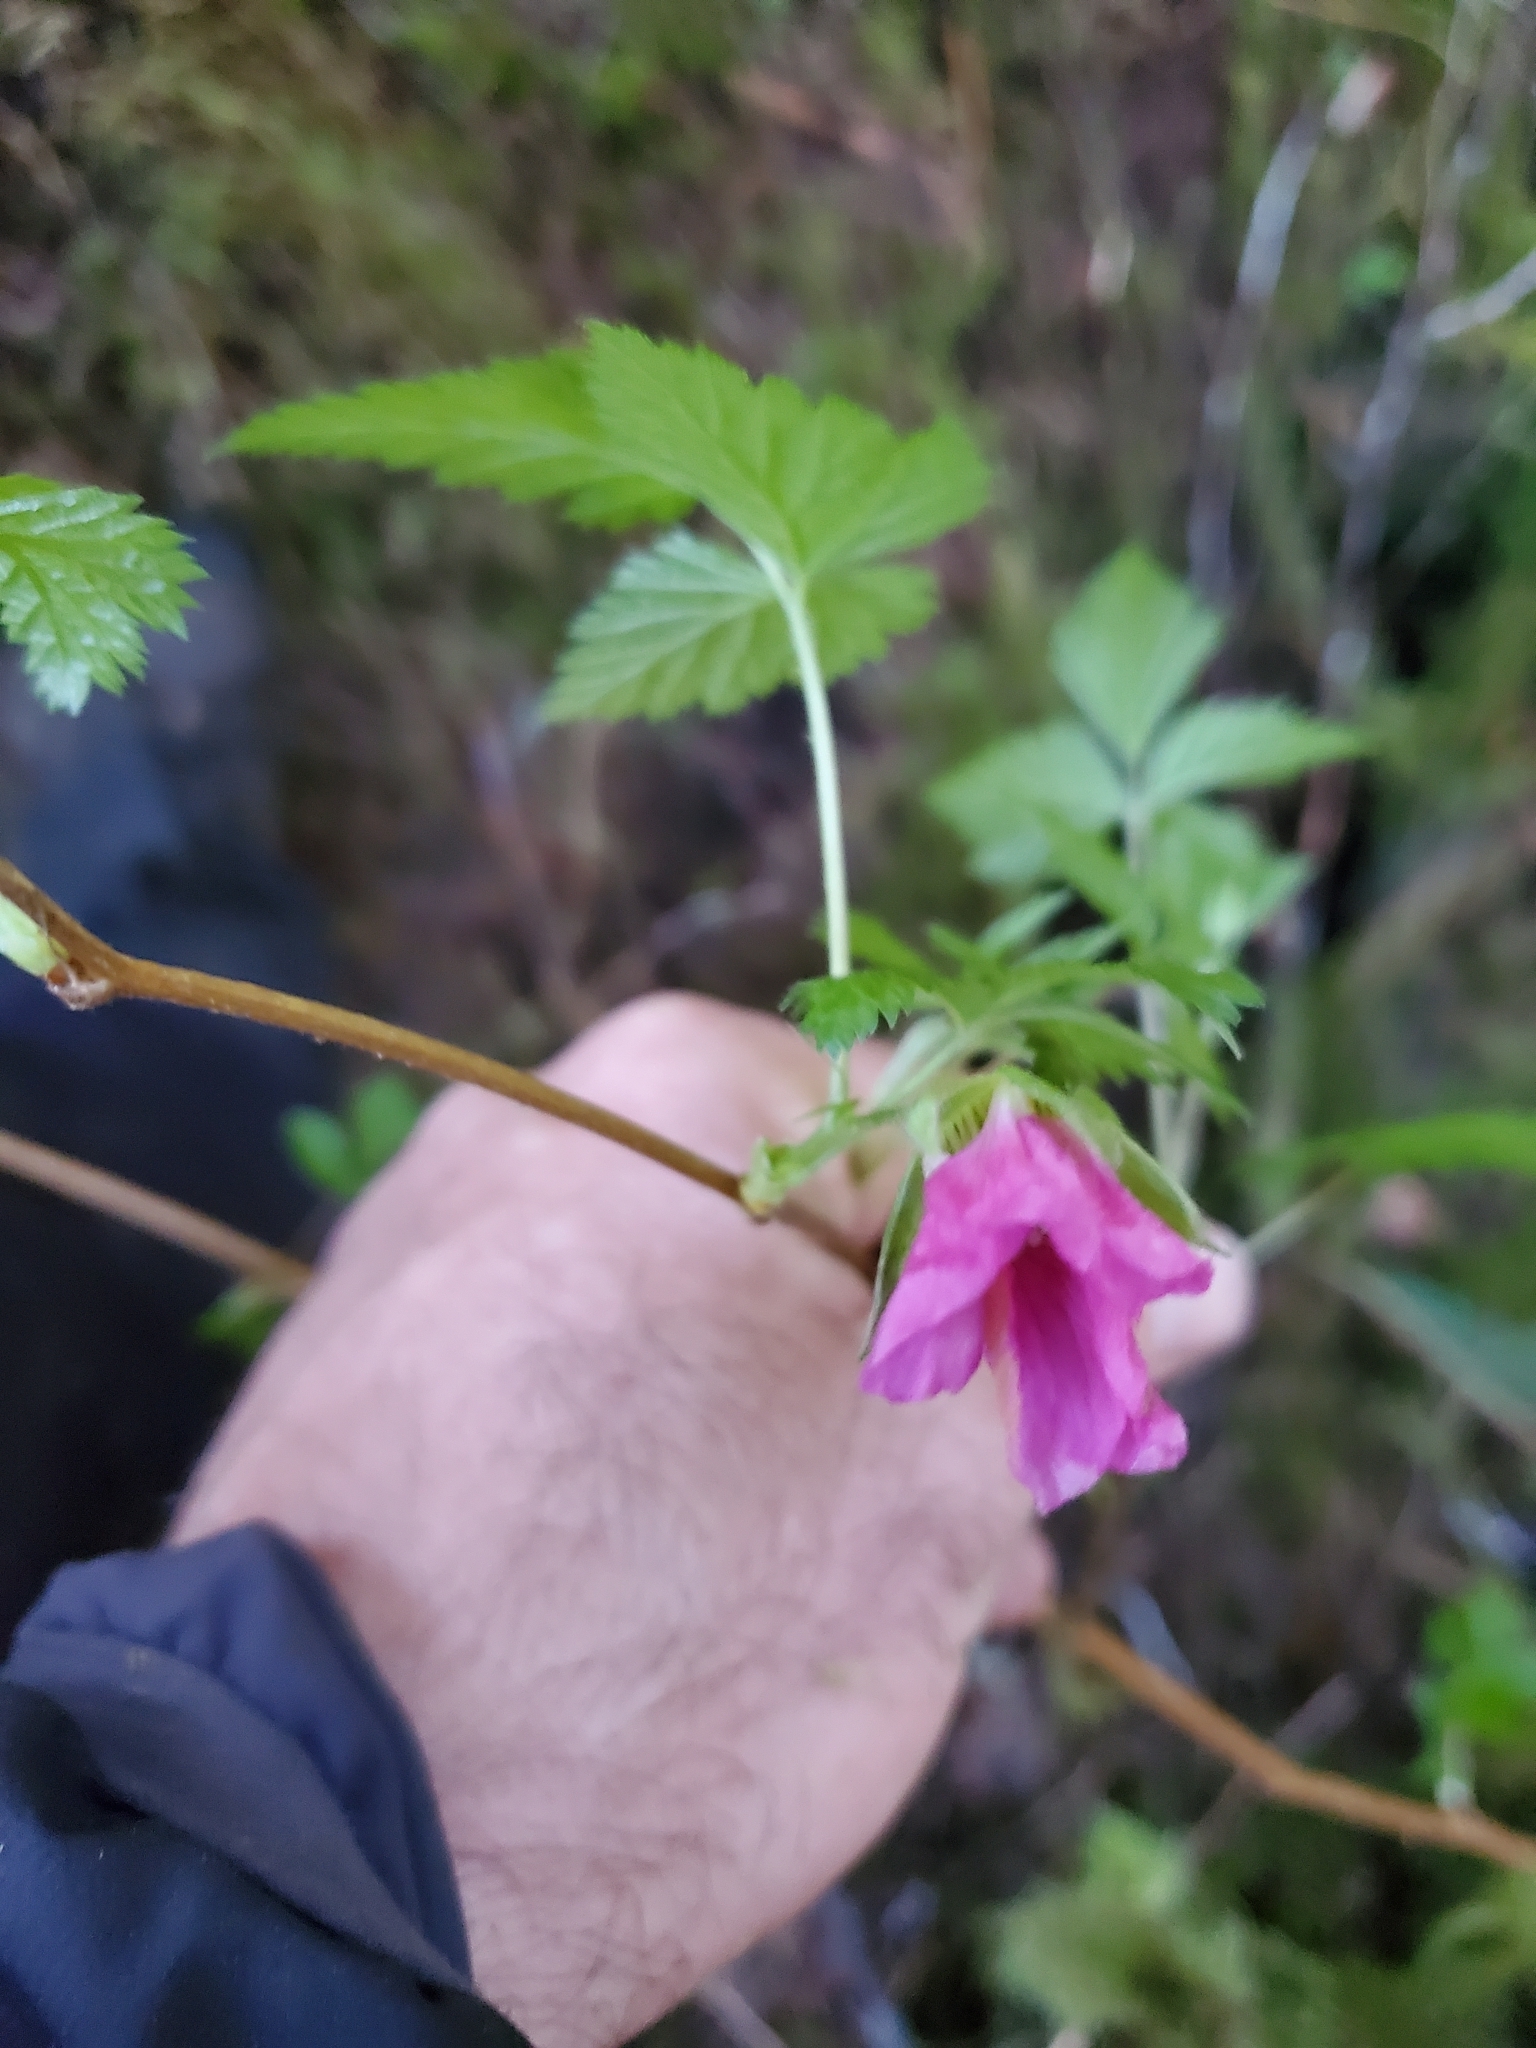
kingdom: Plantae
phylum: Tracheophyta
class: Magnoliopsida
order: Rosales
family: Rosaceae
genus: Rubus
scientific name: Rubus spectabilis
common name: Salmonberry
